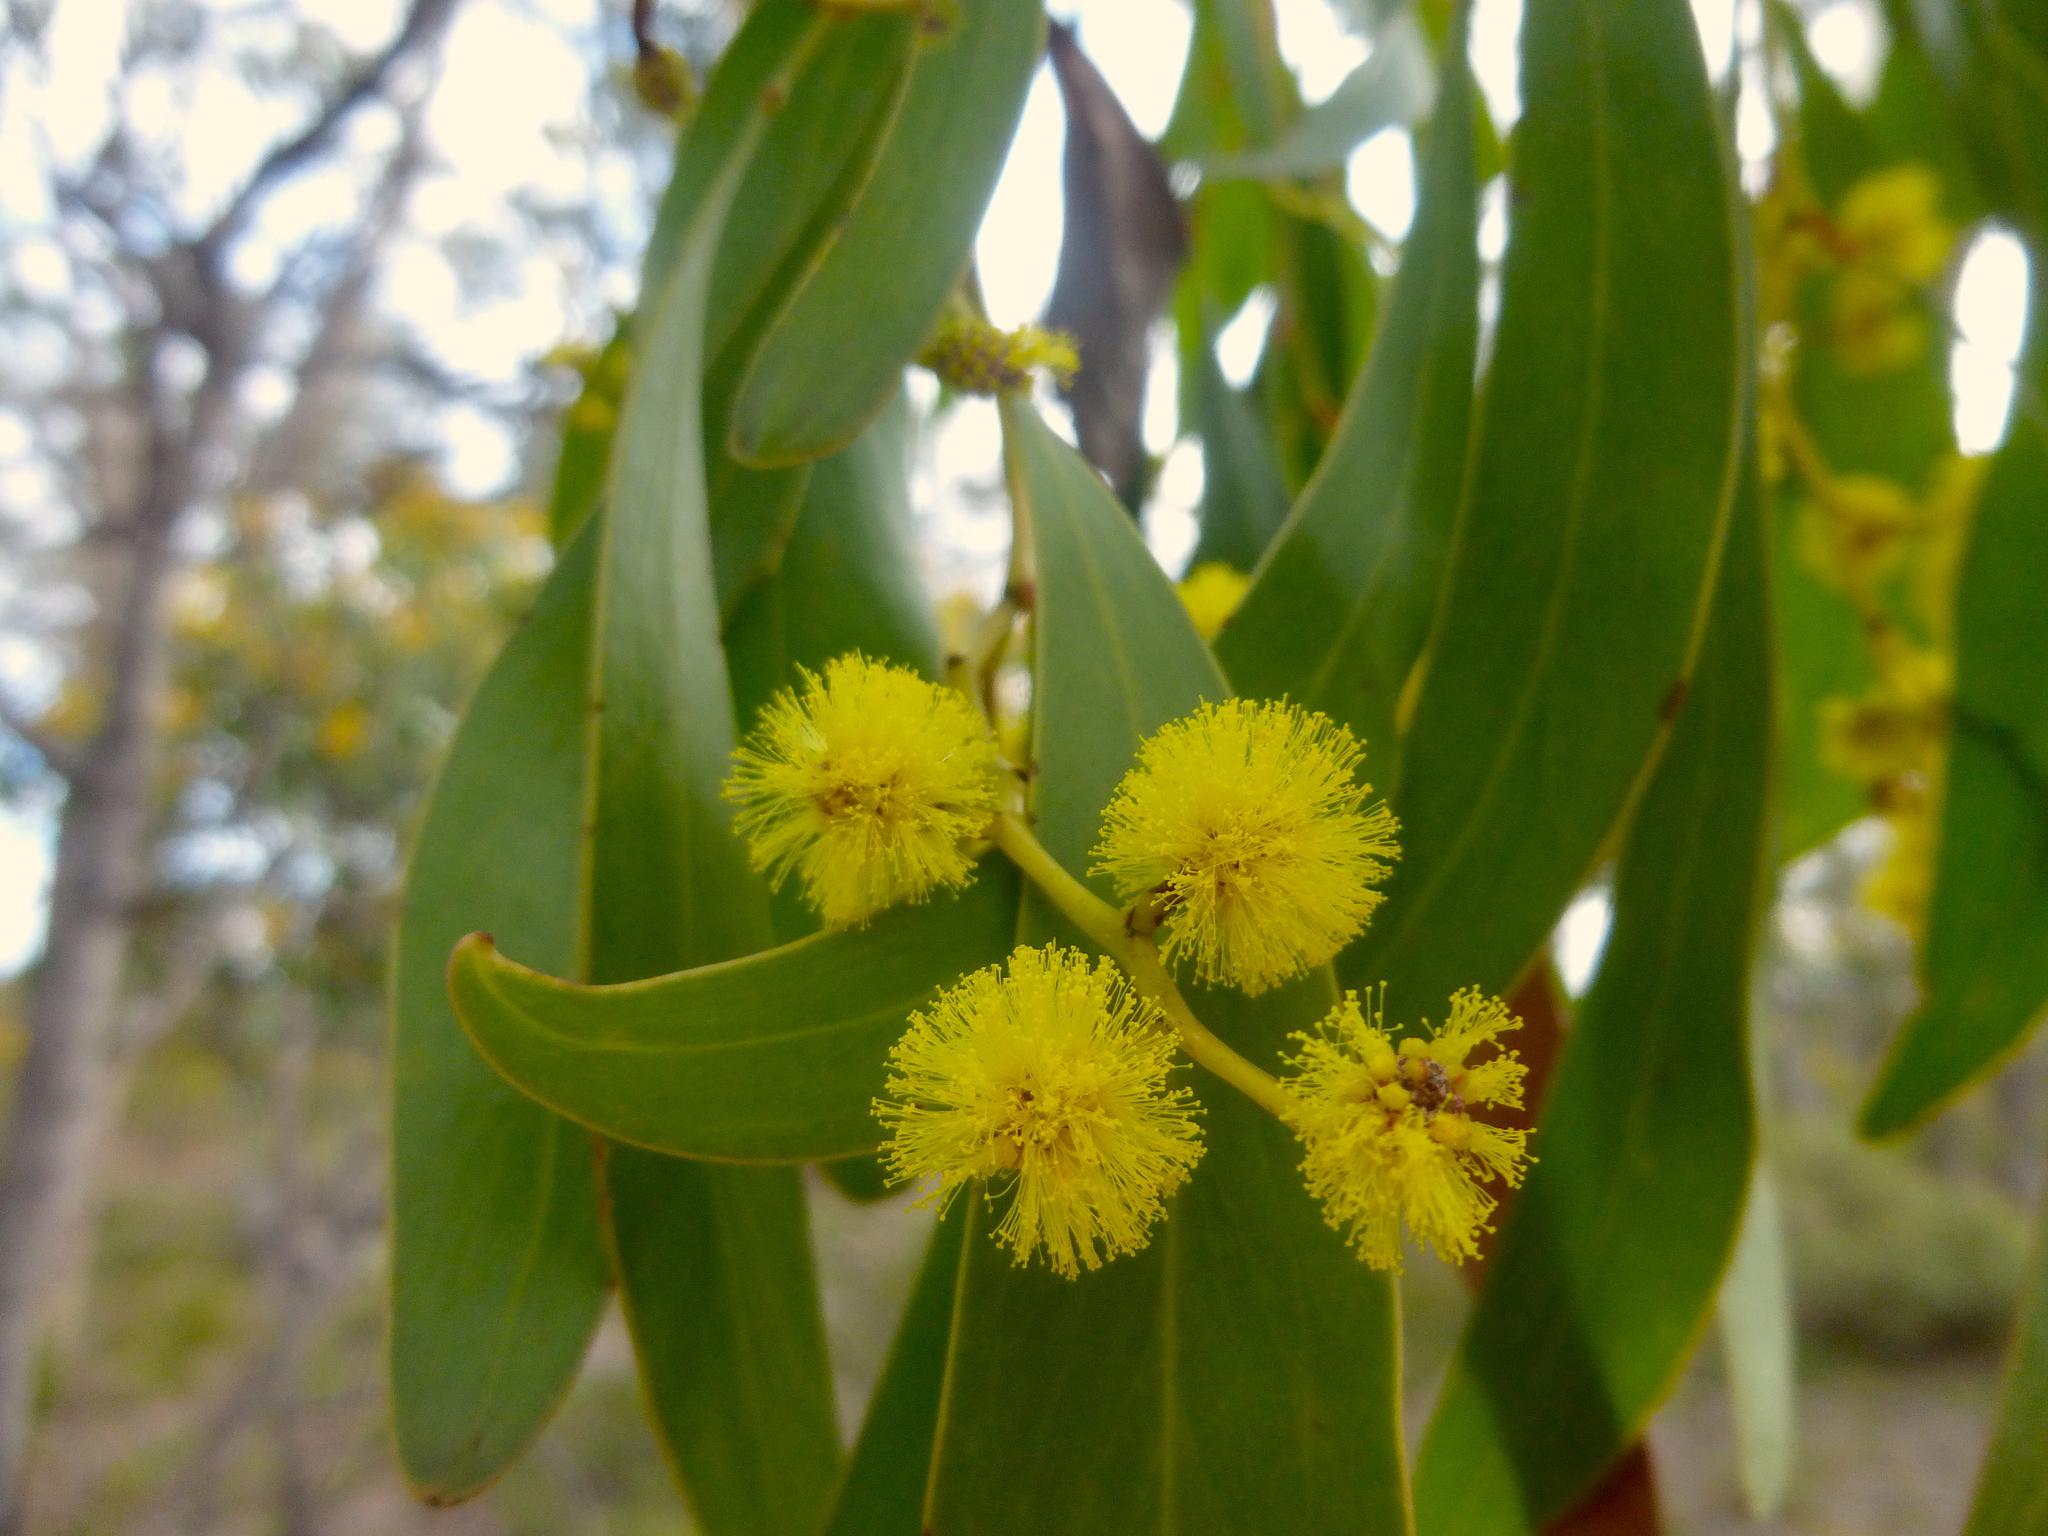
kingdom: Plantae
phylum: Tracheophyta
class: Magnoliopsida
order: Fabales
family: Fabaceae
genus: Acacia
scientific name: Acacia pycnantha
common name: Golden wattle
